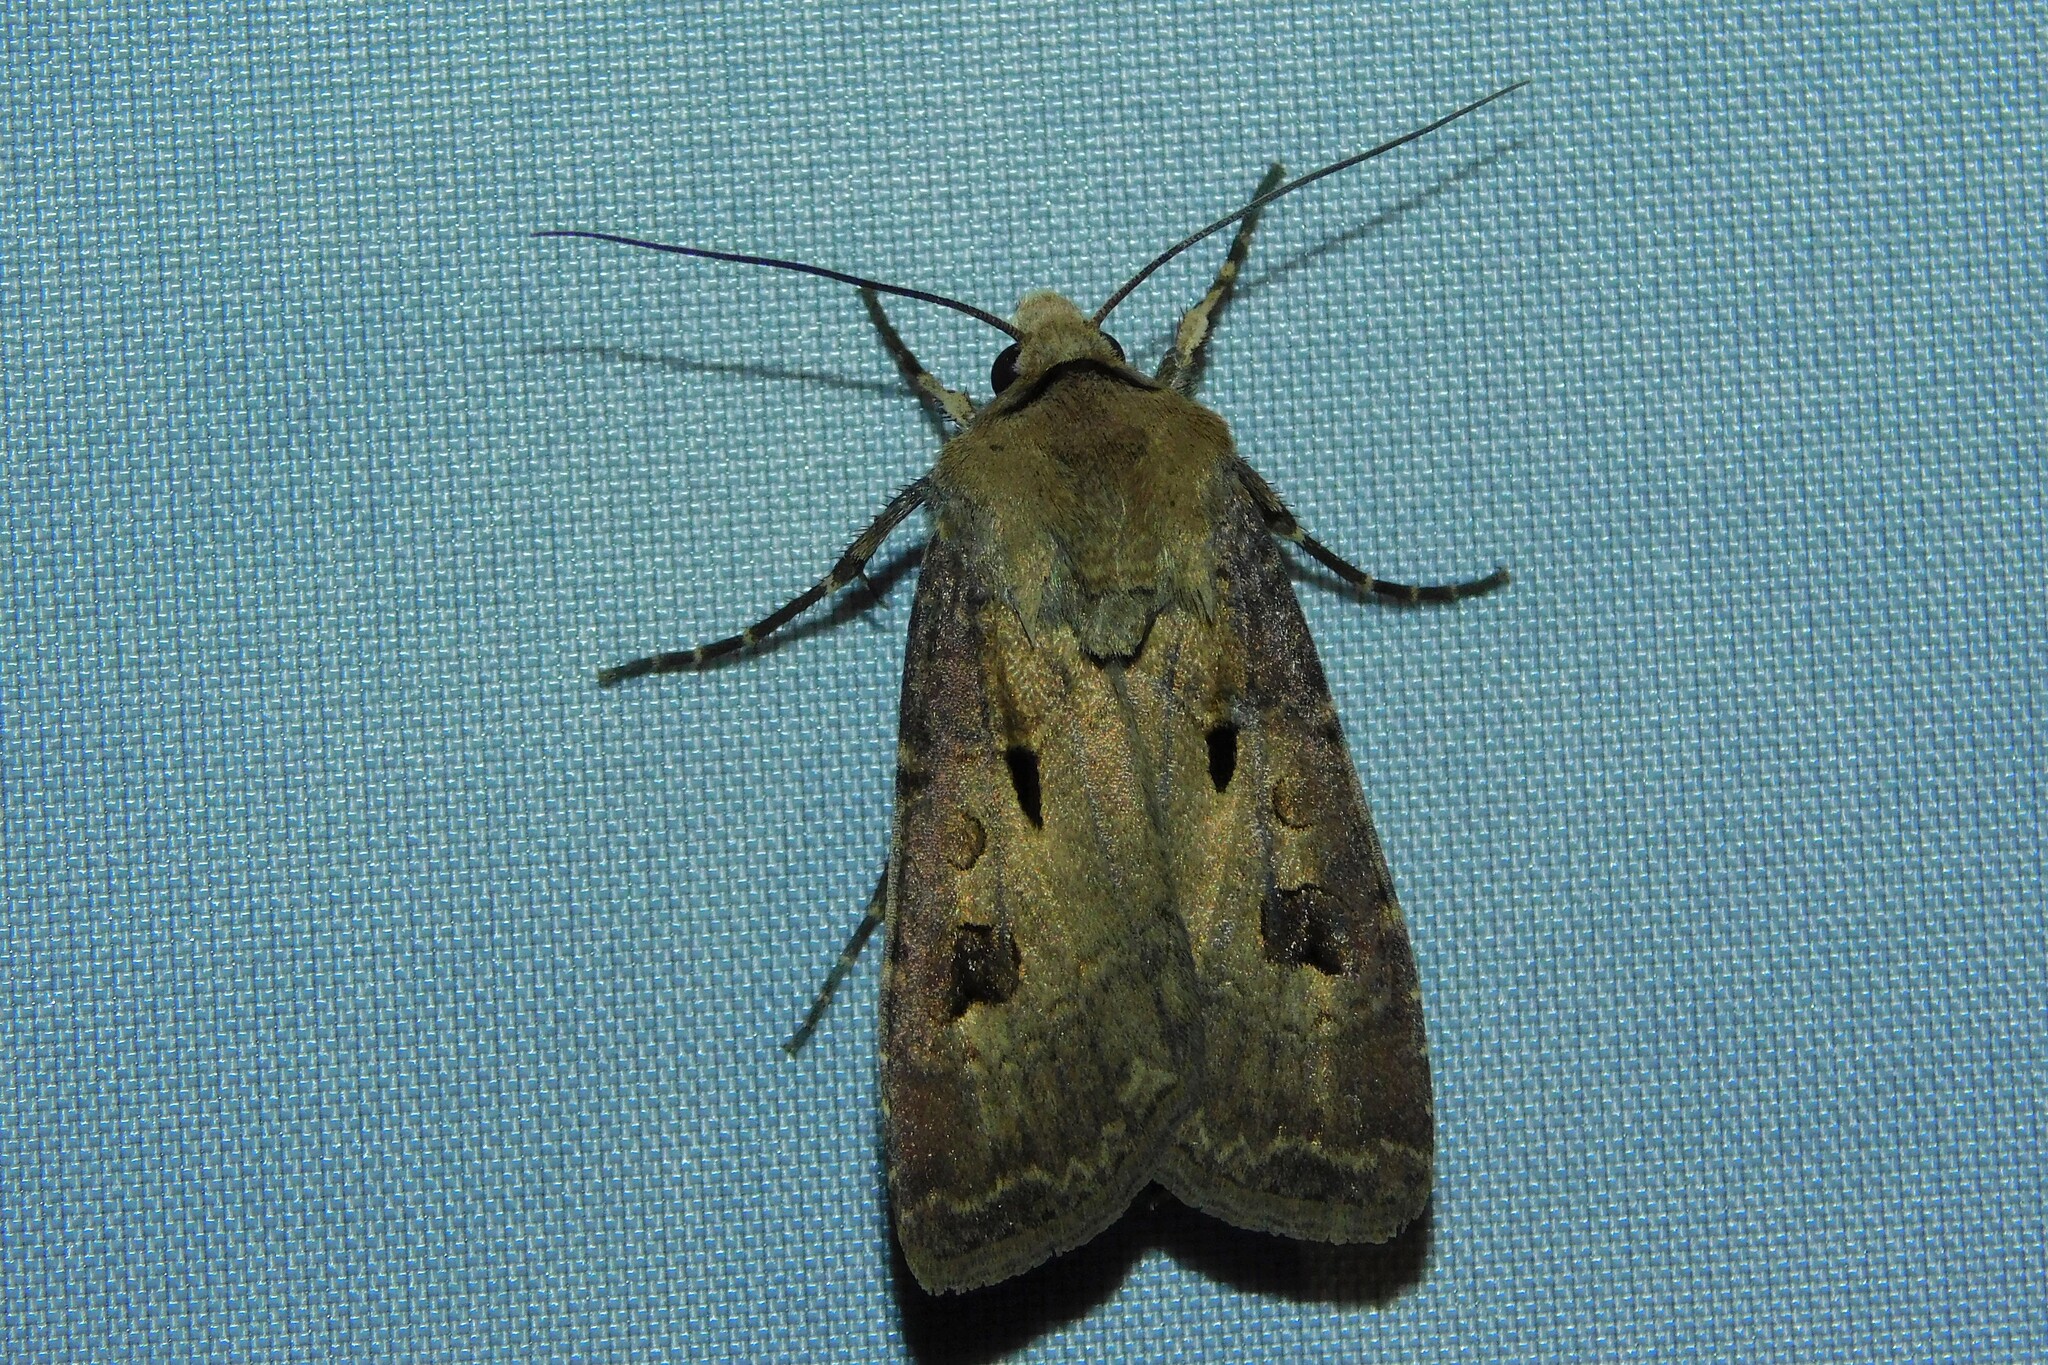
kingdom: Animalia
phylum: Arthropoda
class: Insecta
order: Lepidoptera
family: Noctuidae
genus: Agrotis
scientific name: Agrotis exclamationis
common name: Heart and dart
